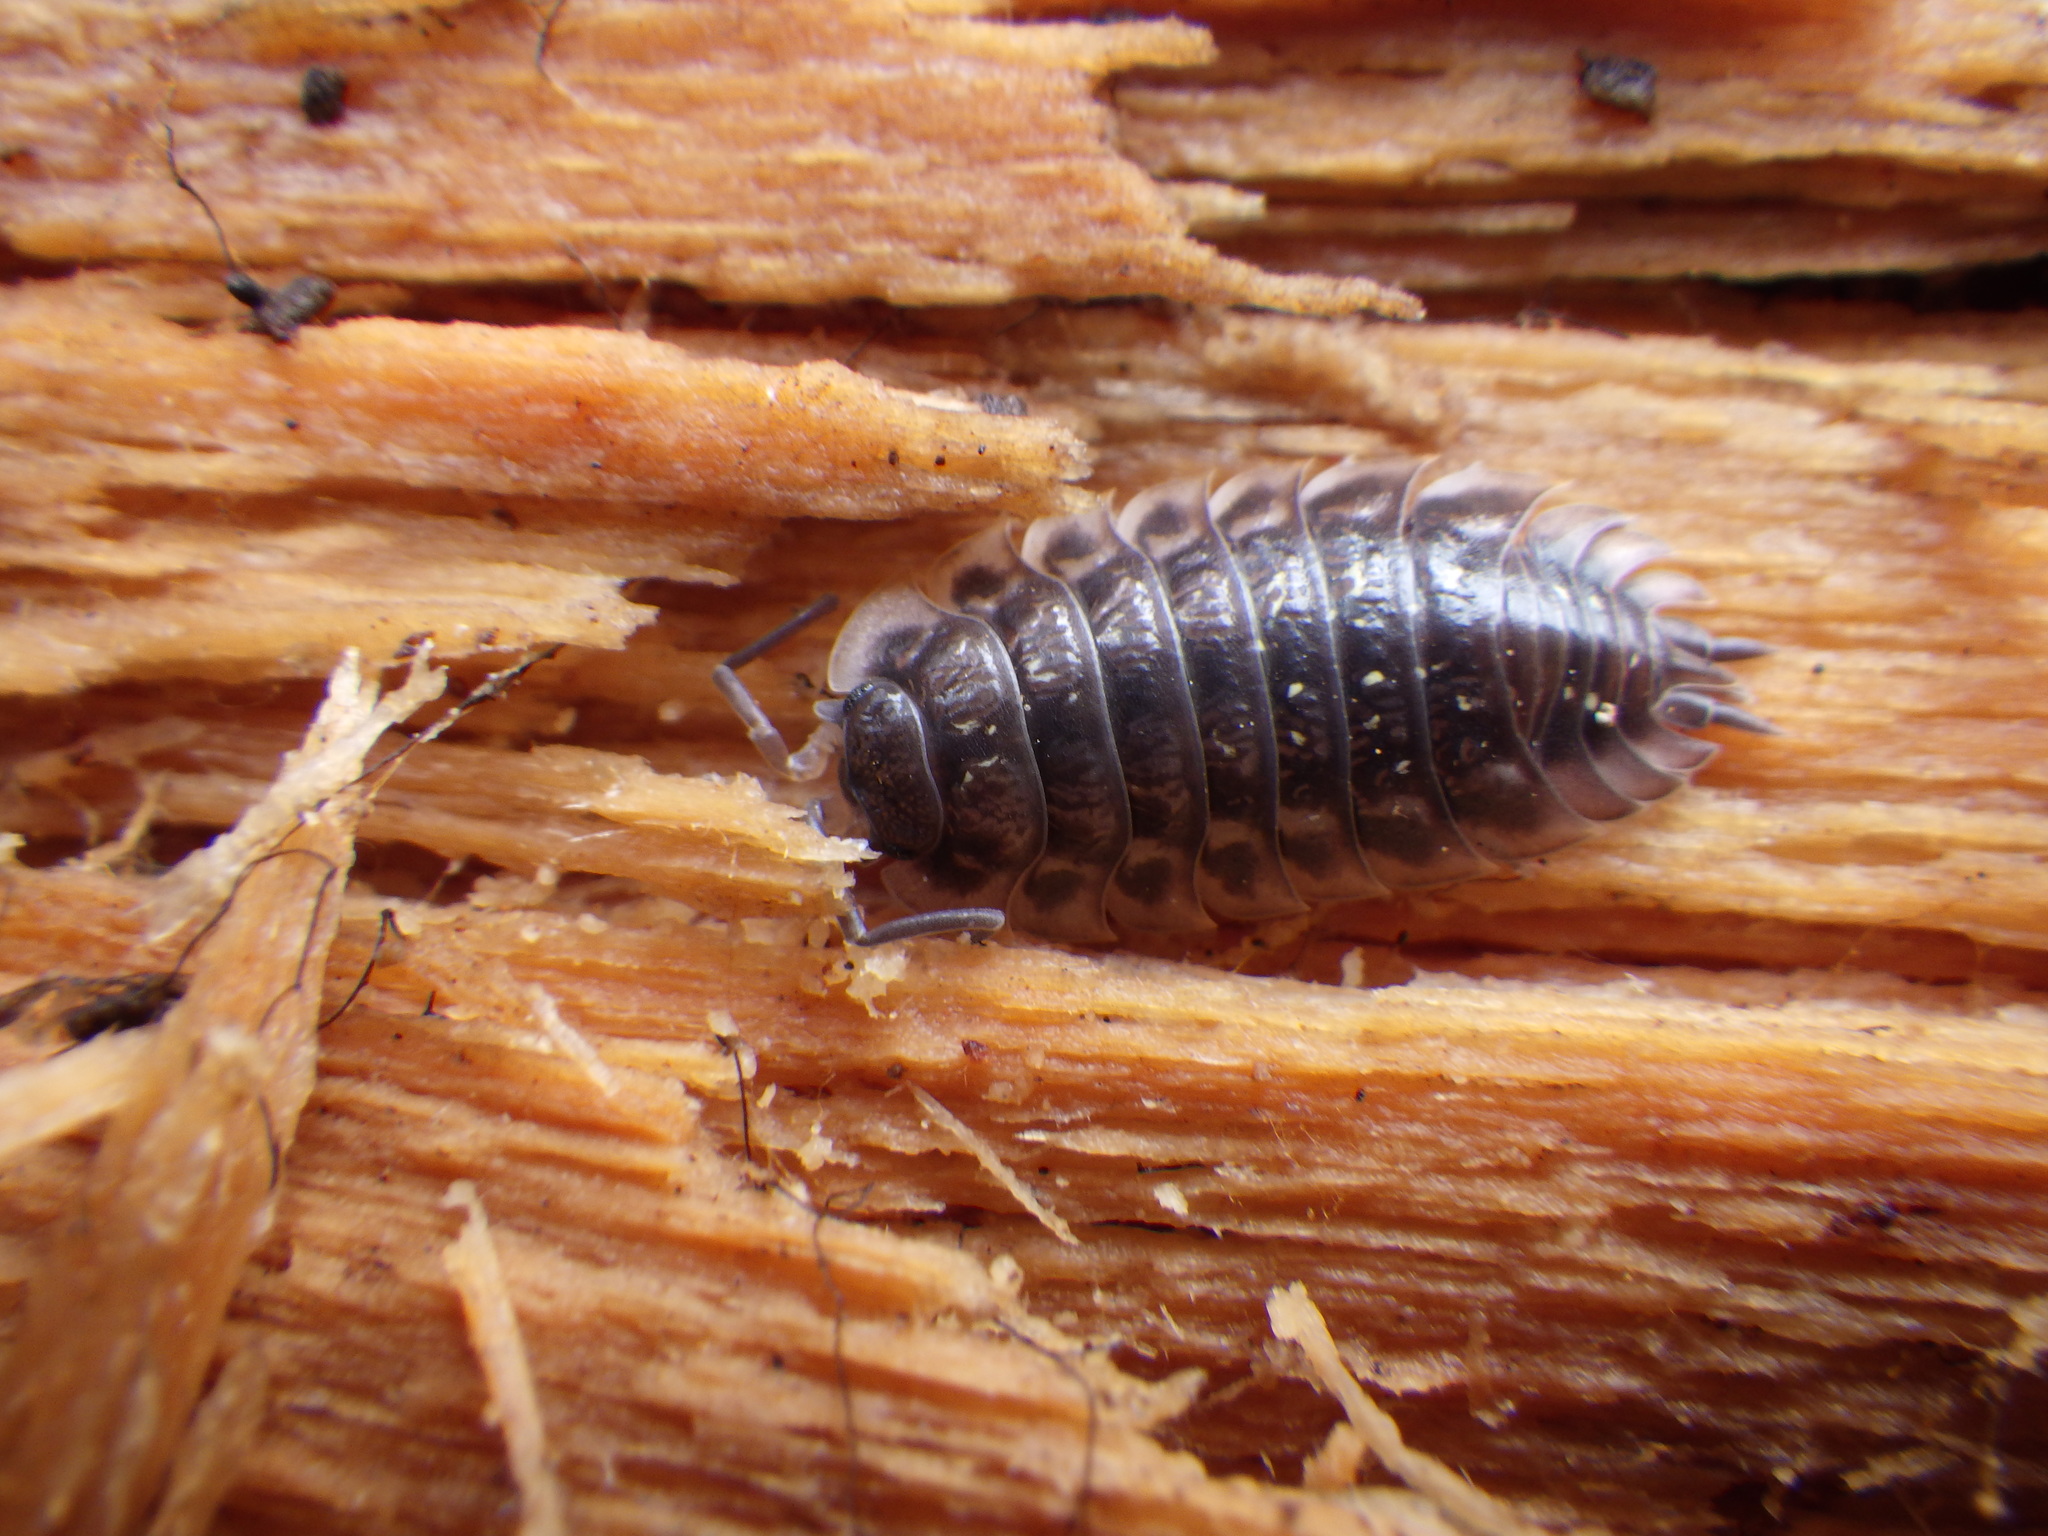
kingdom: Animalia
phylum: Arthropoda
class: Malacostraca
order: Isopoda
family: Oniscidae
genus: Oniscus
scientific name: Oniscus asellus
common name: Common shiny woodlouse
